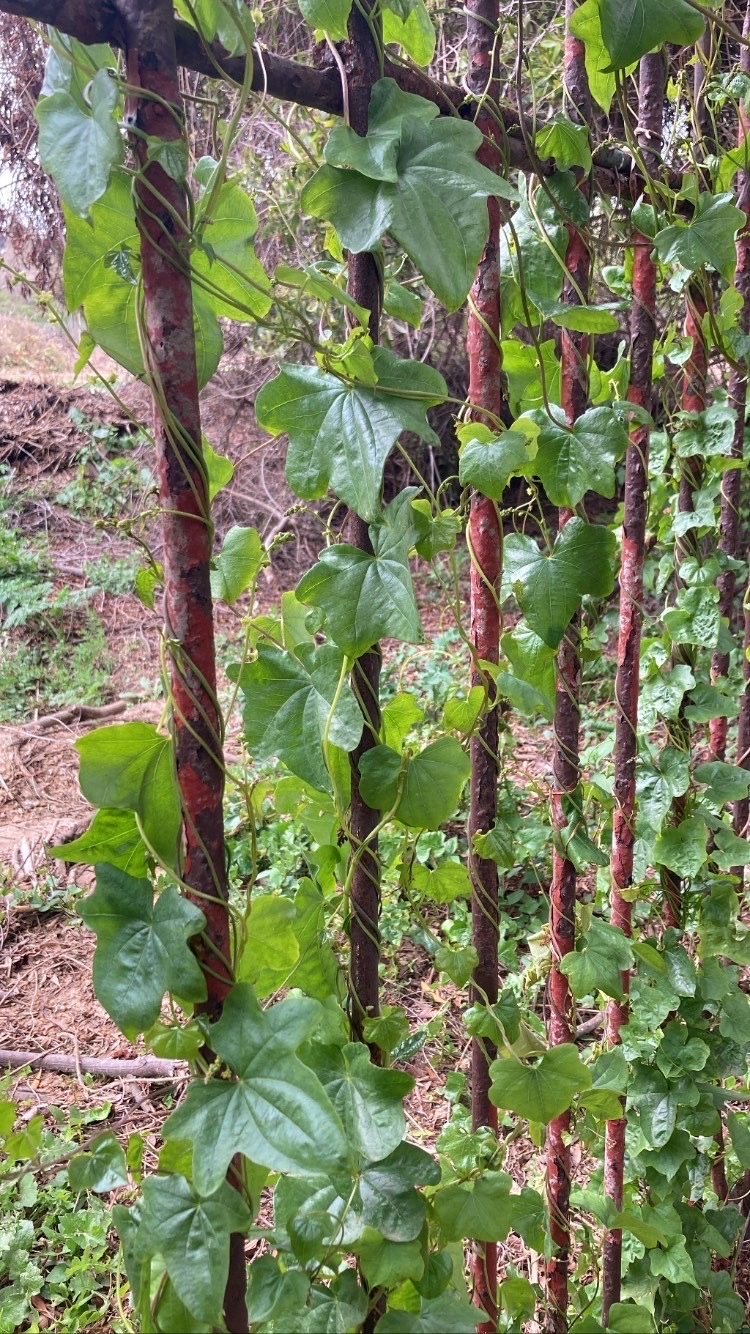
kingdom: Plantae
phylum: Tracheophyta
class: Liliopsida
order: Dioscoreales
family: Dioscoreaceae
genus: Dioscorea
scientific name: Dioscorea bryoniifolia
